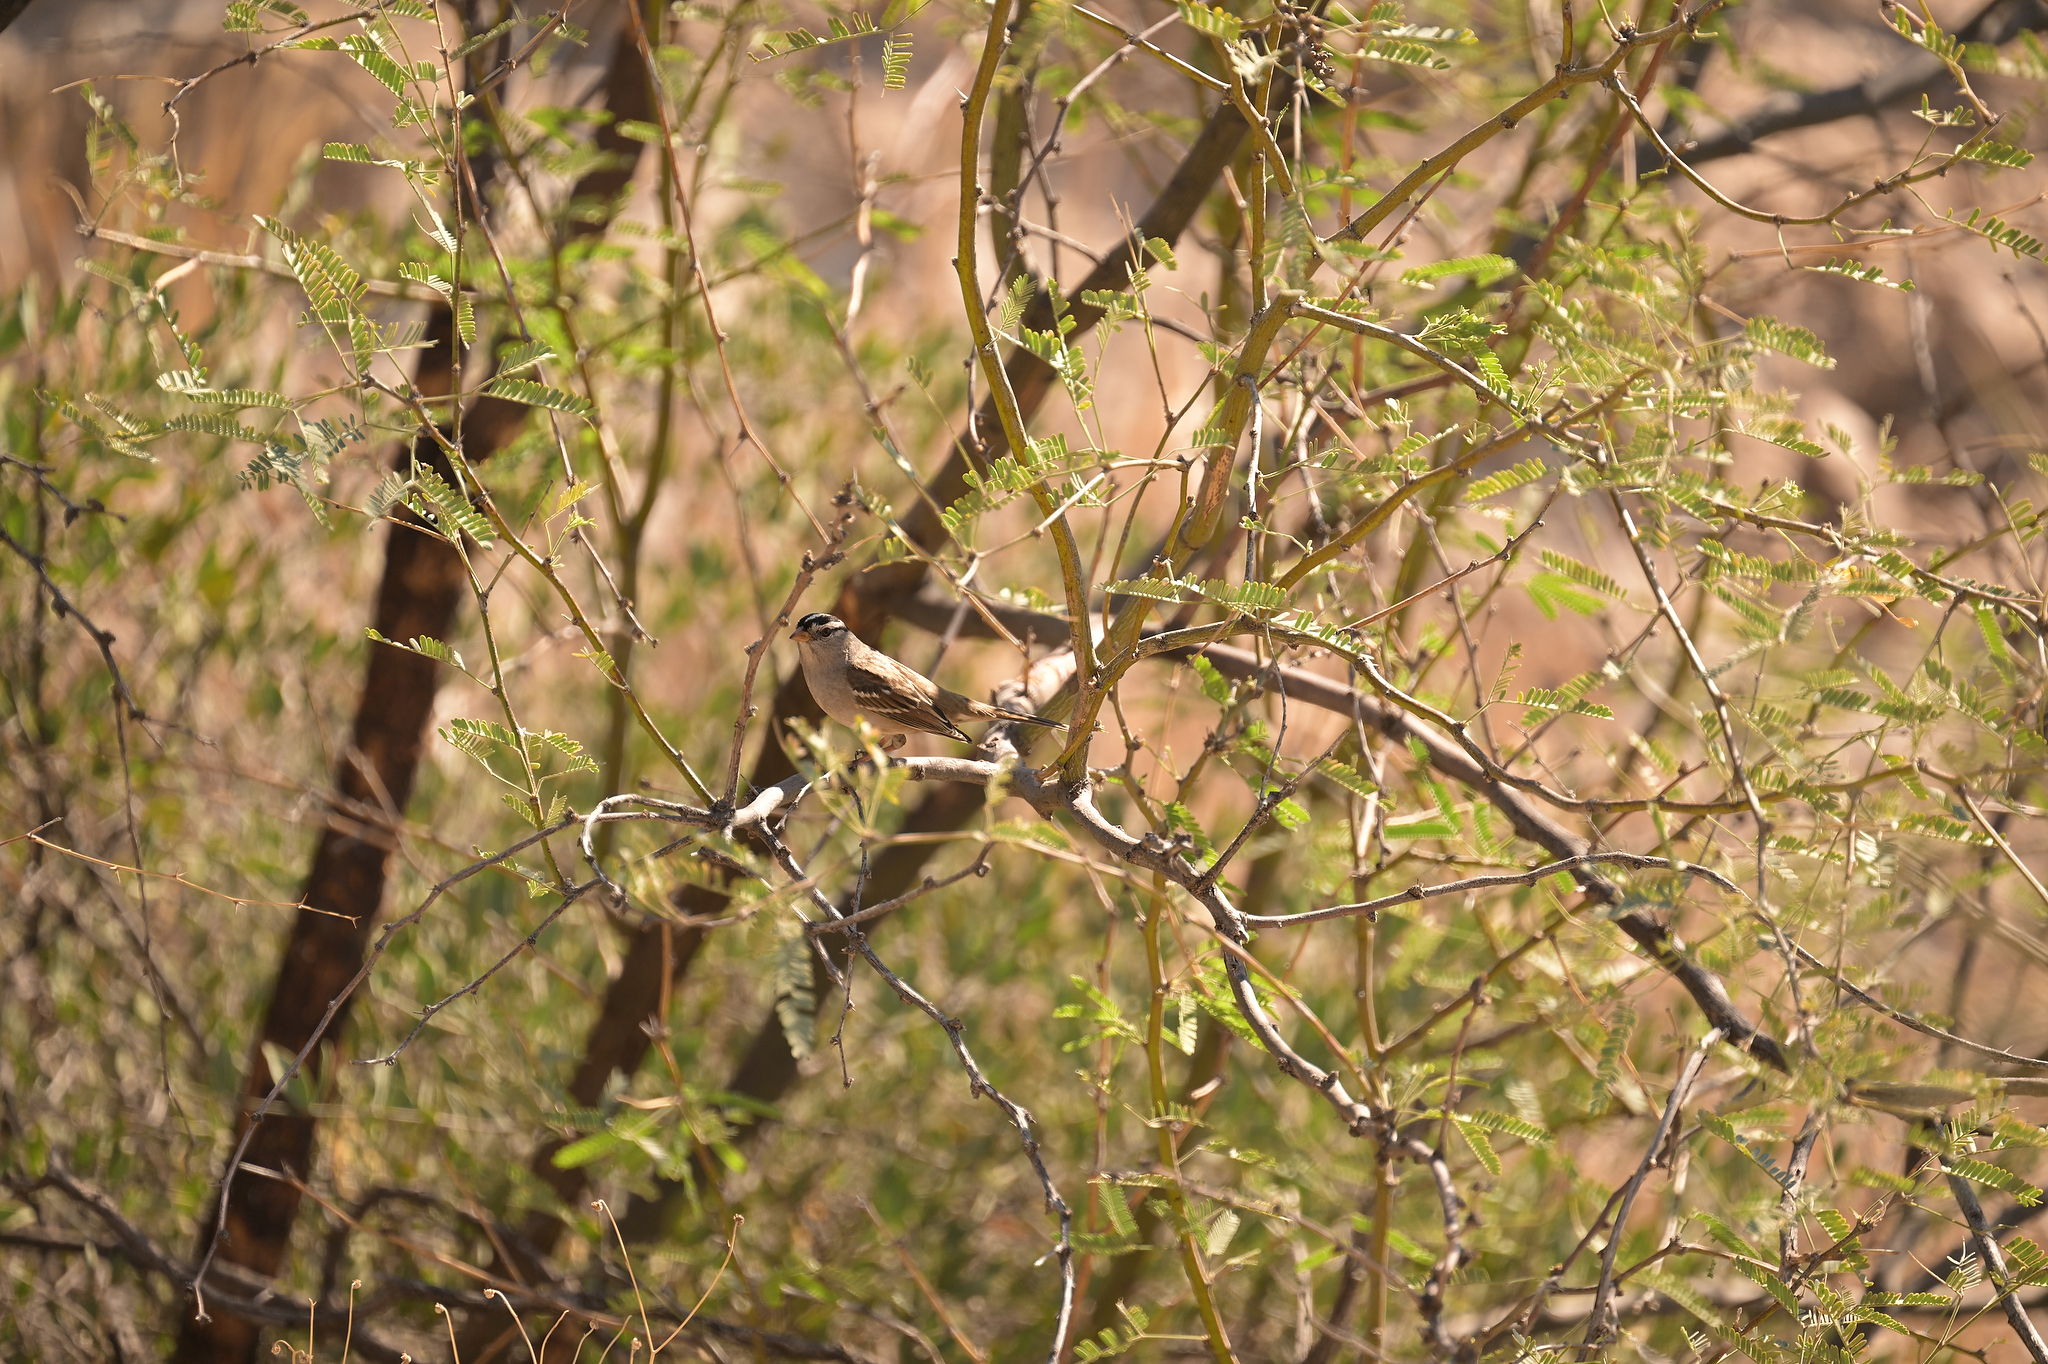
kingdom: Animalia
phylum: Chordata
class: Aves
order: Passeriformes
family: Passerellidae
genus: Zonotrichia
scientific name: Zonotrichia leucophrys
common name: White-crowned sparrow
